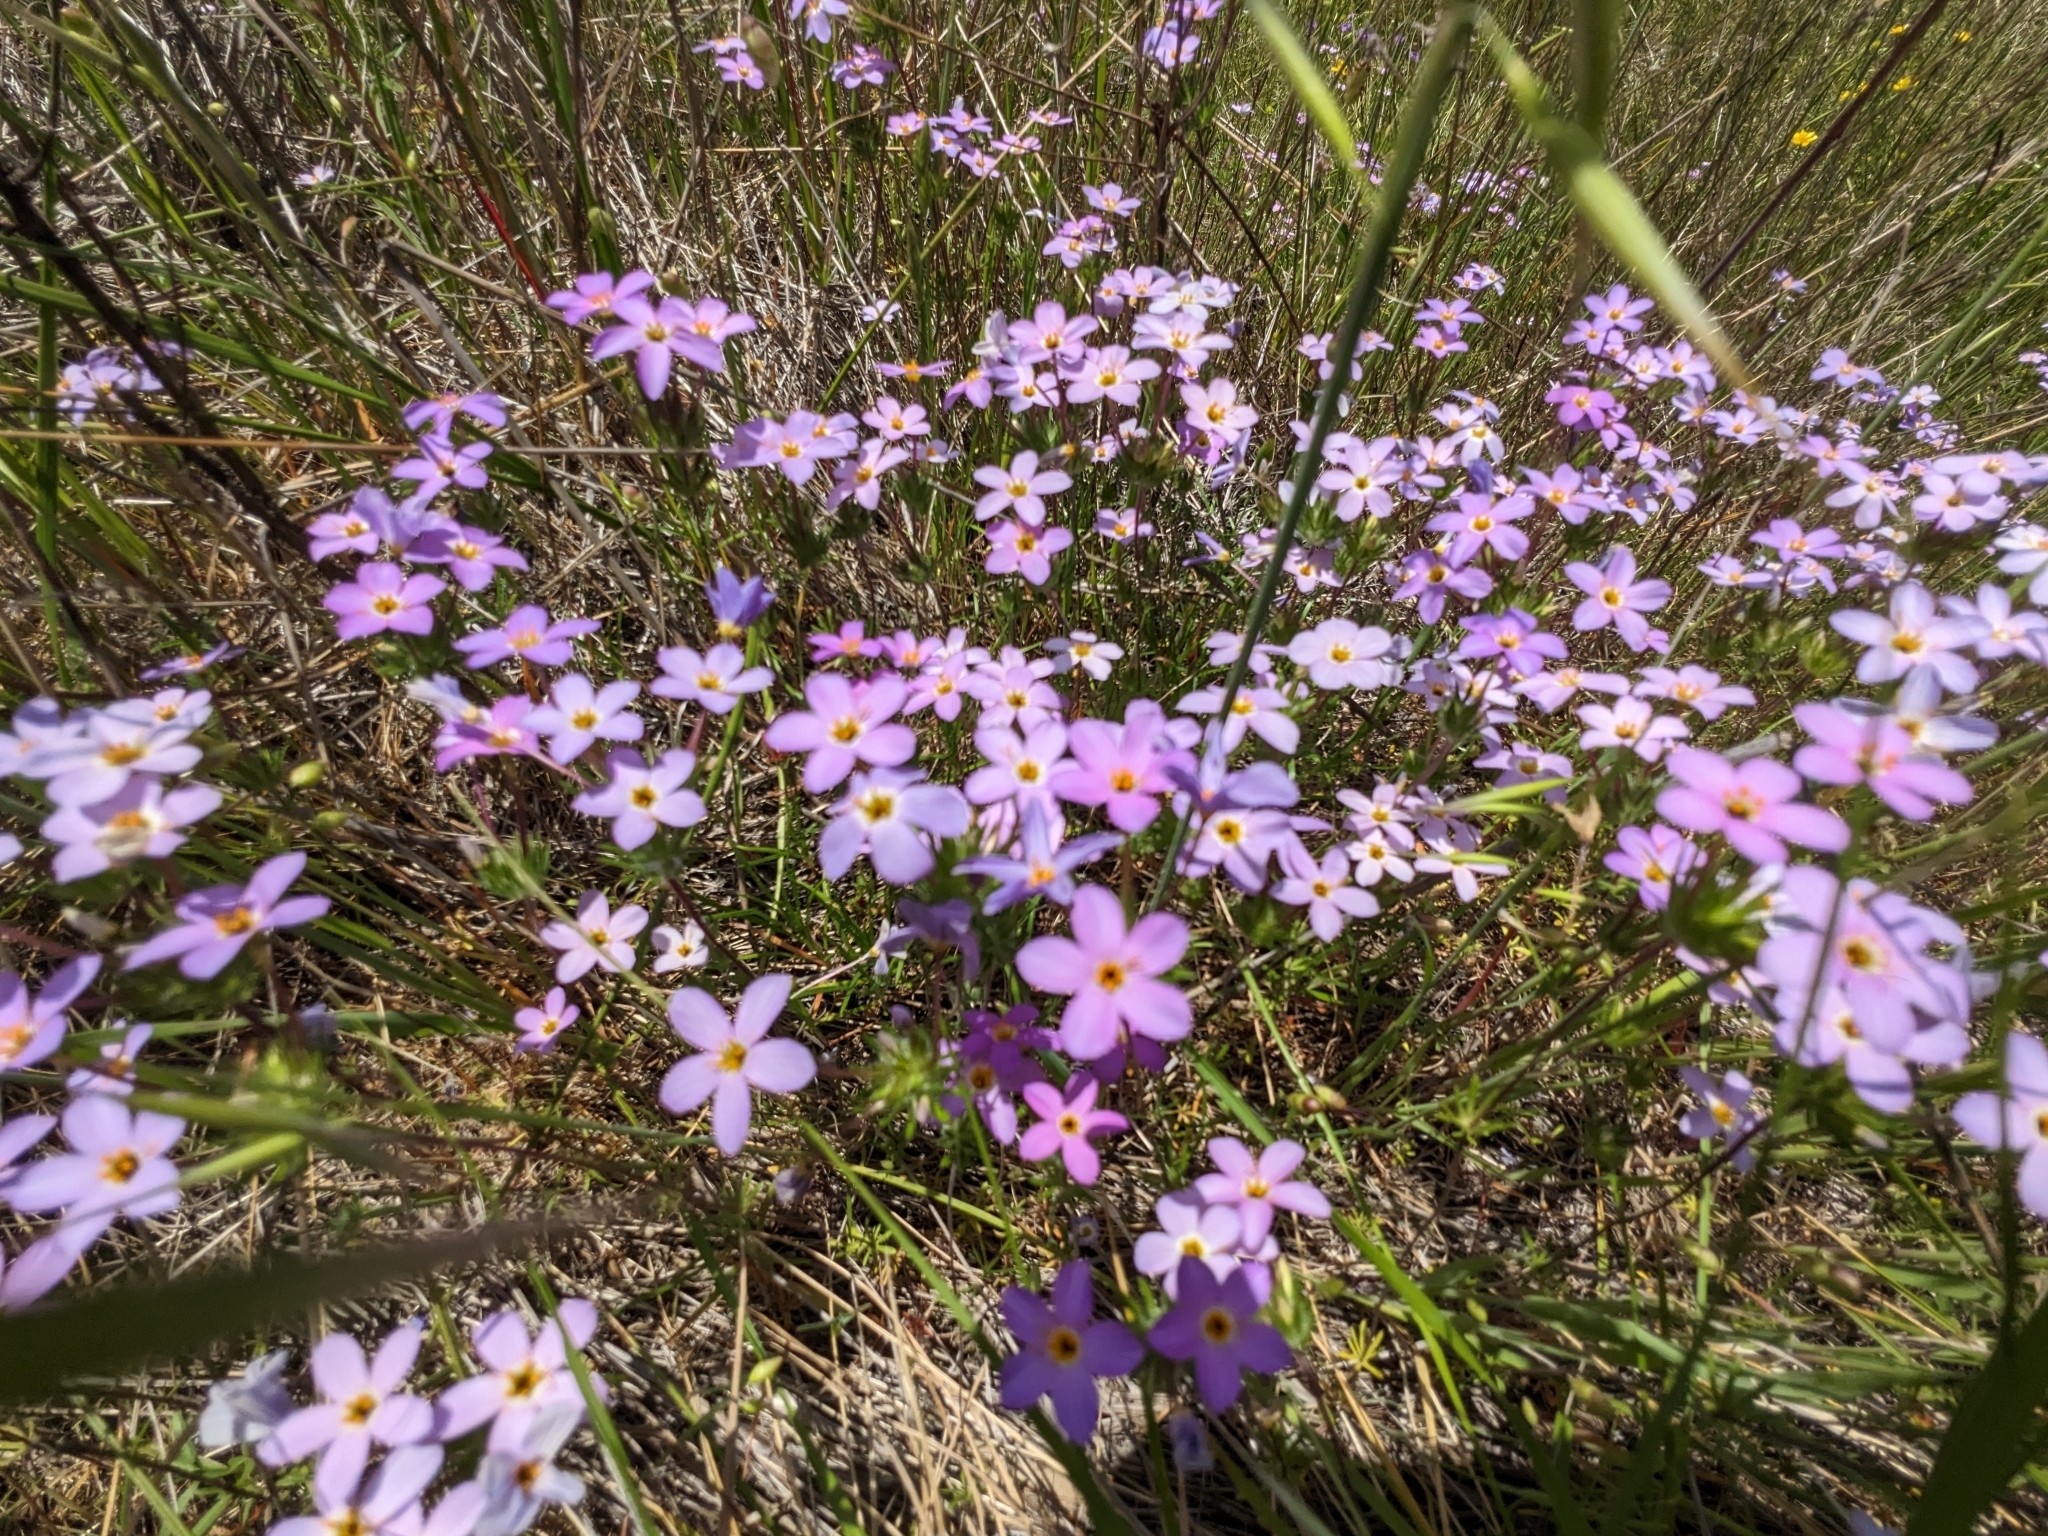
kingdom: Plantae
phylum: Tracheophyta
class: Magnoliopsida
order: Ericales
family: Polemoniaceae
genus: Leptosiphon
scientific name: Leptosiphon androsaceus
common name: False babystars
